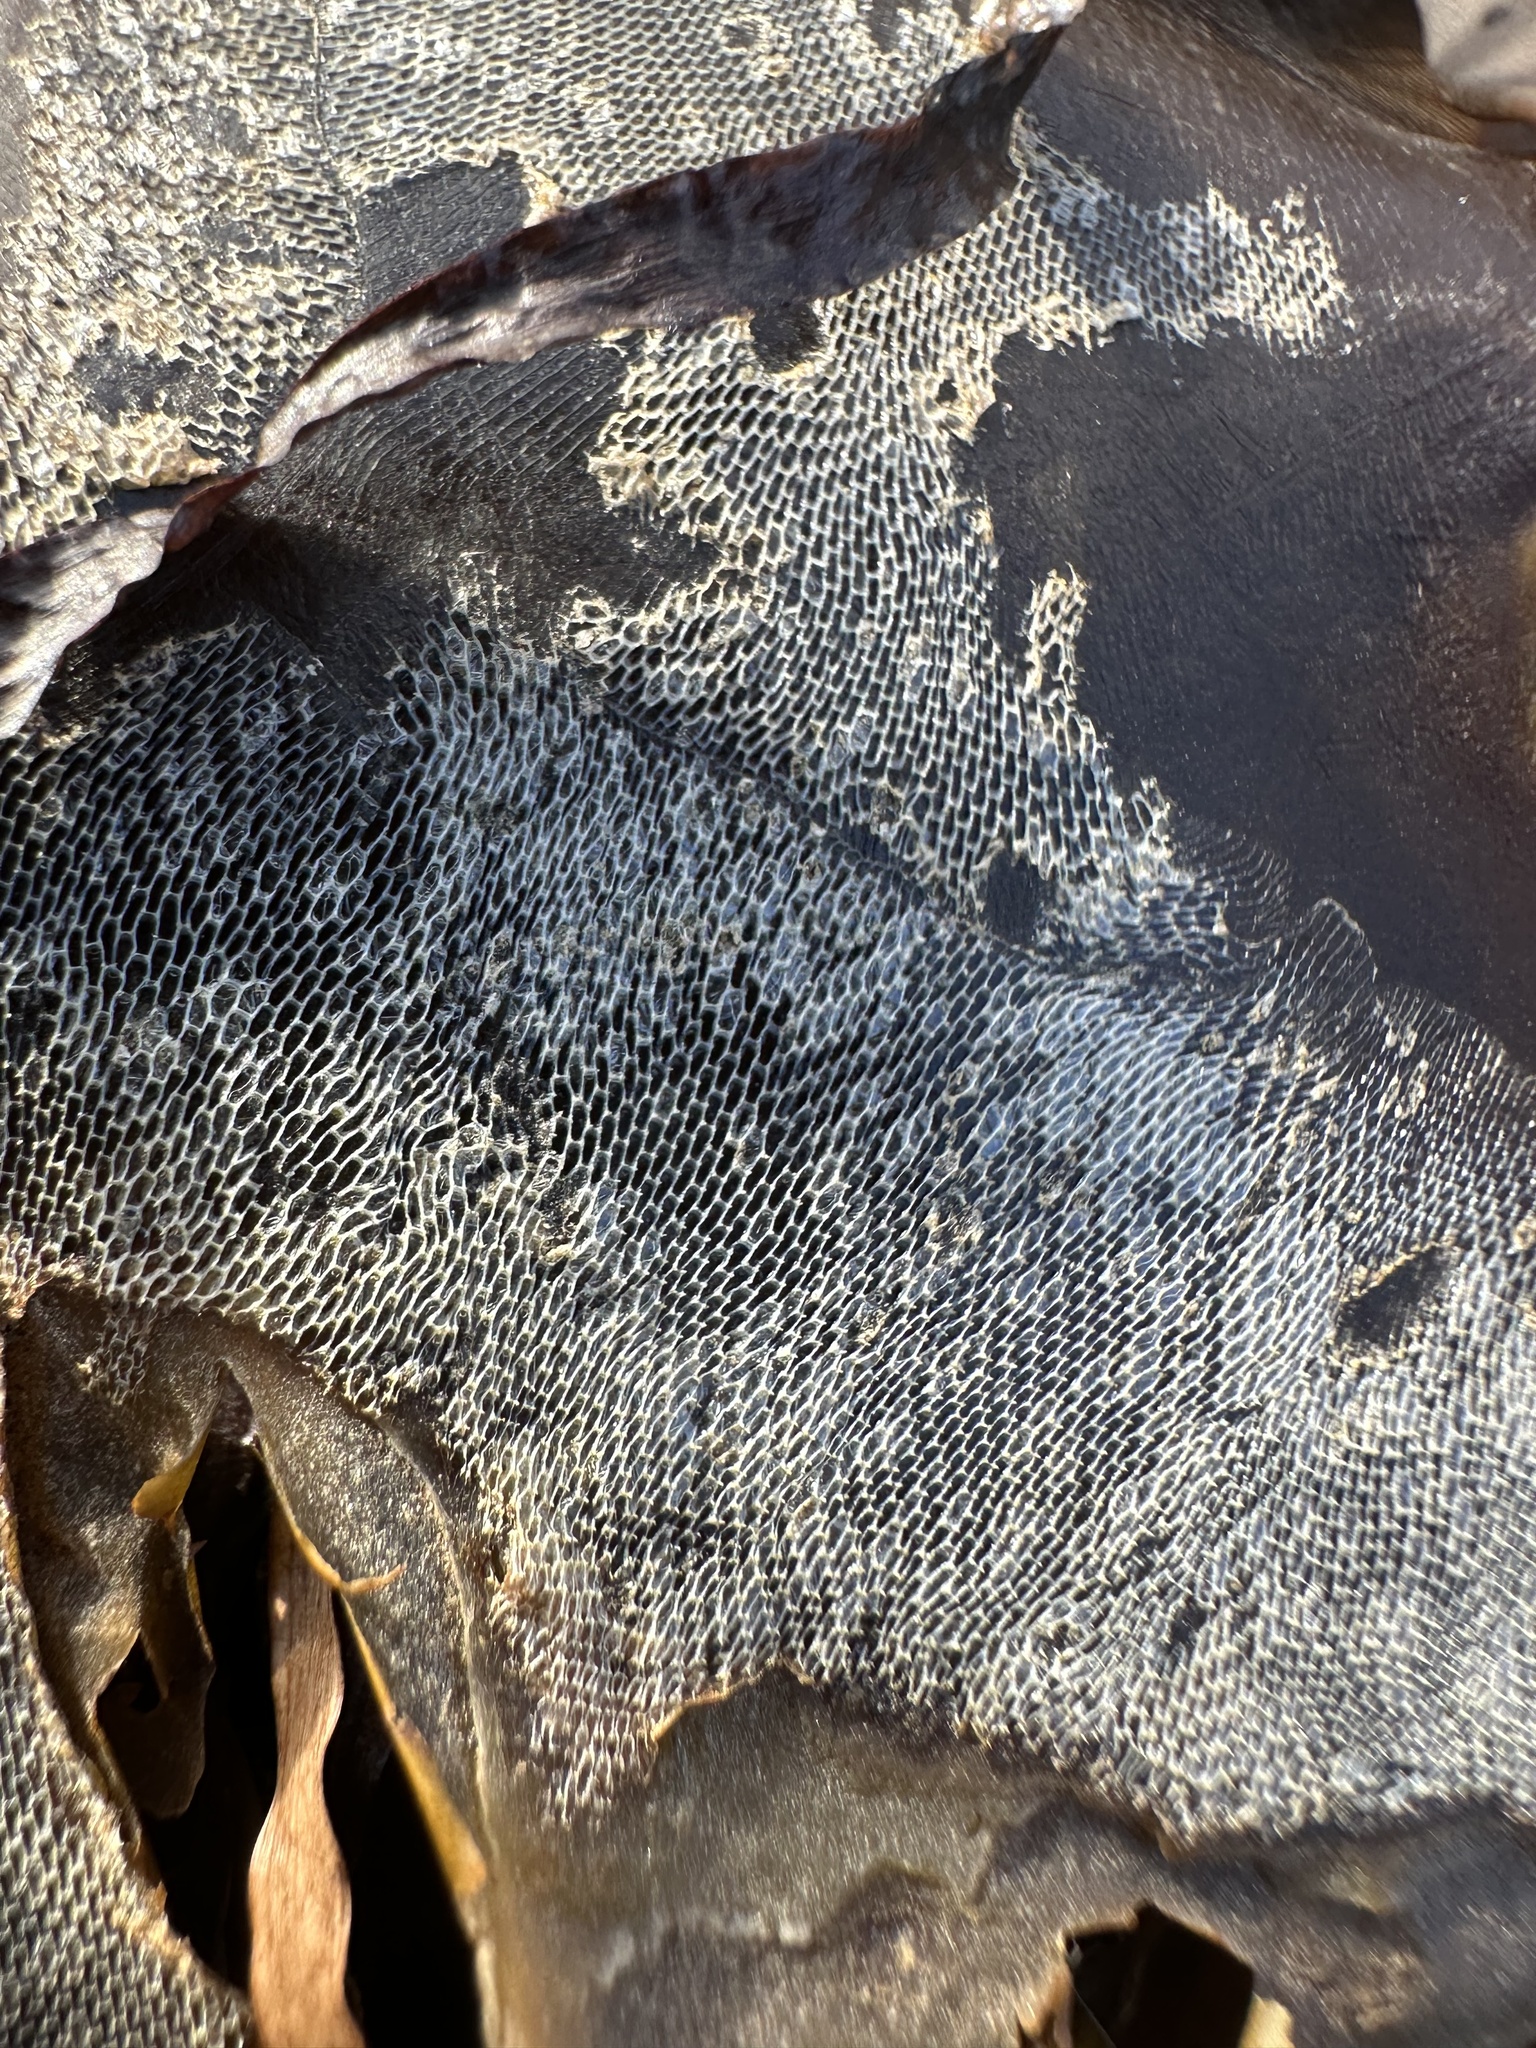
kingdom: Animalia
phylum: Bryozoa
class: Gymnolaemata
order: Cheilostomatida
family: Membraniporidae
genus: Membranipora
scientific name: Membranipora membranacea
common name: Sea mat
